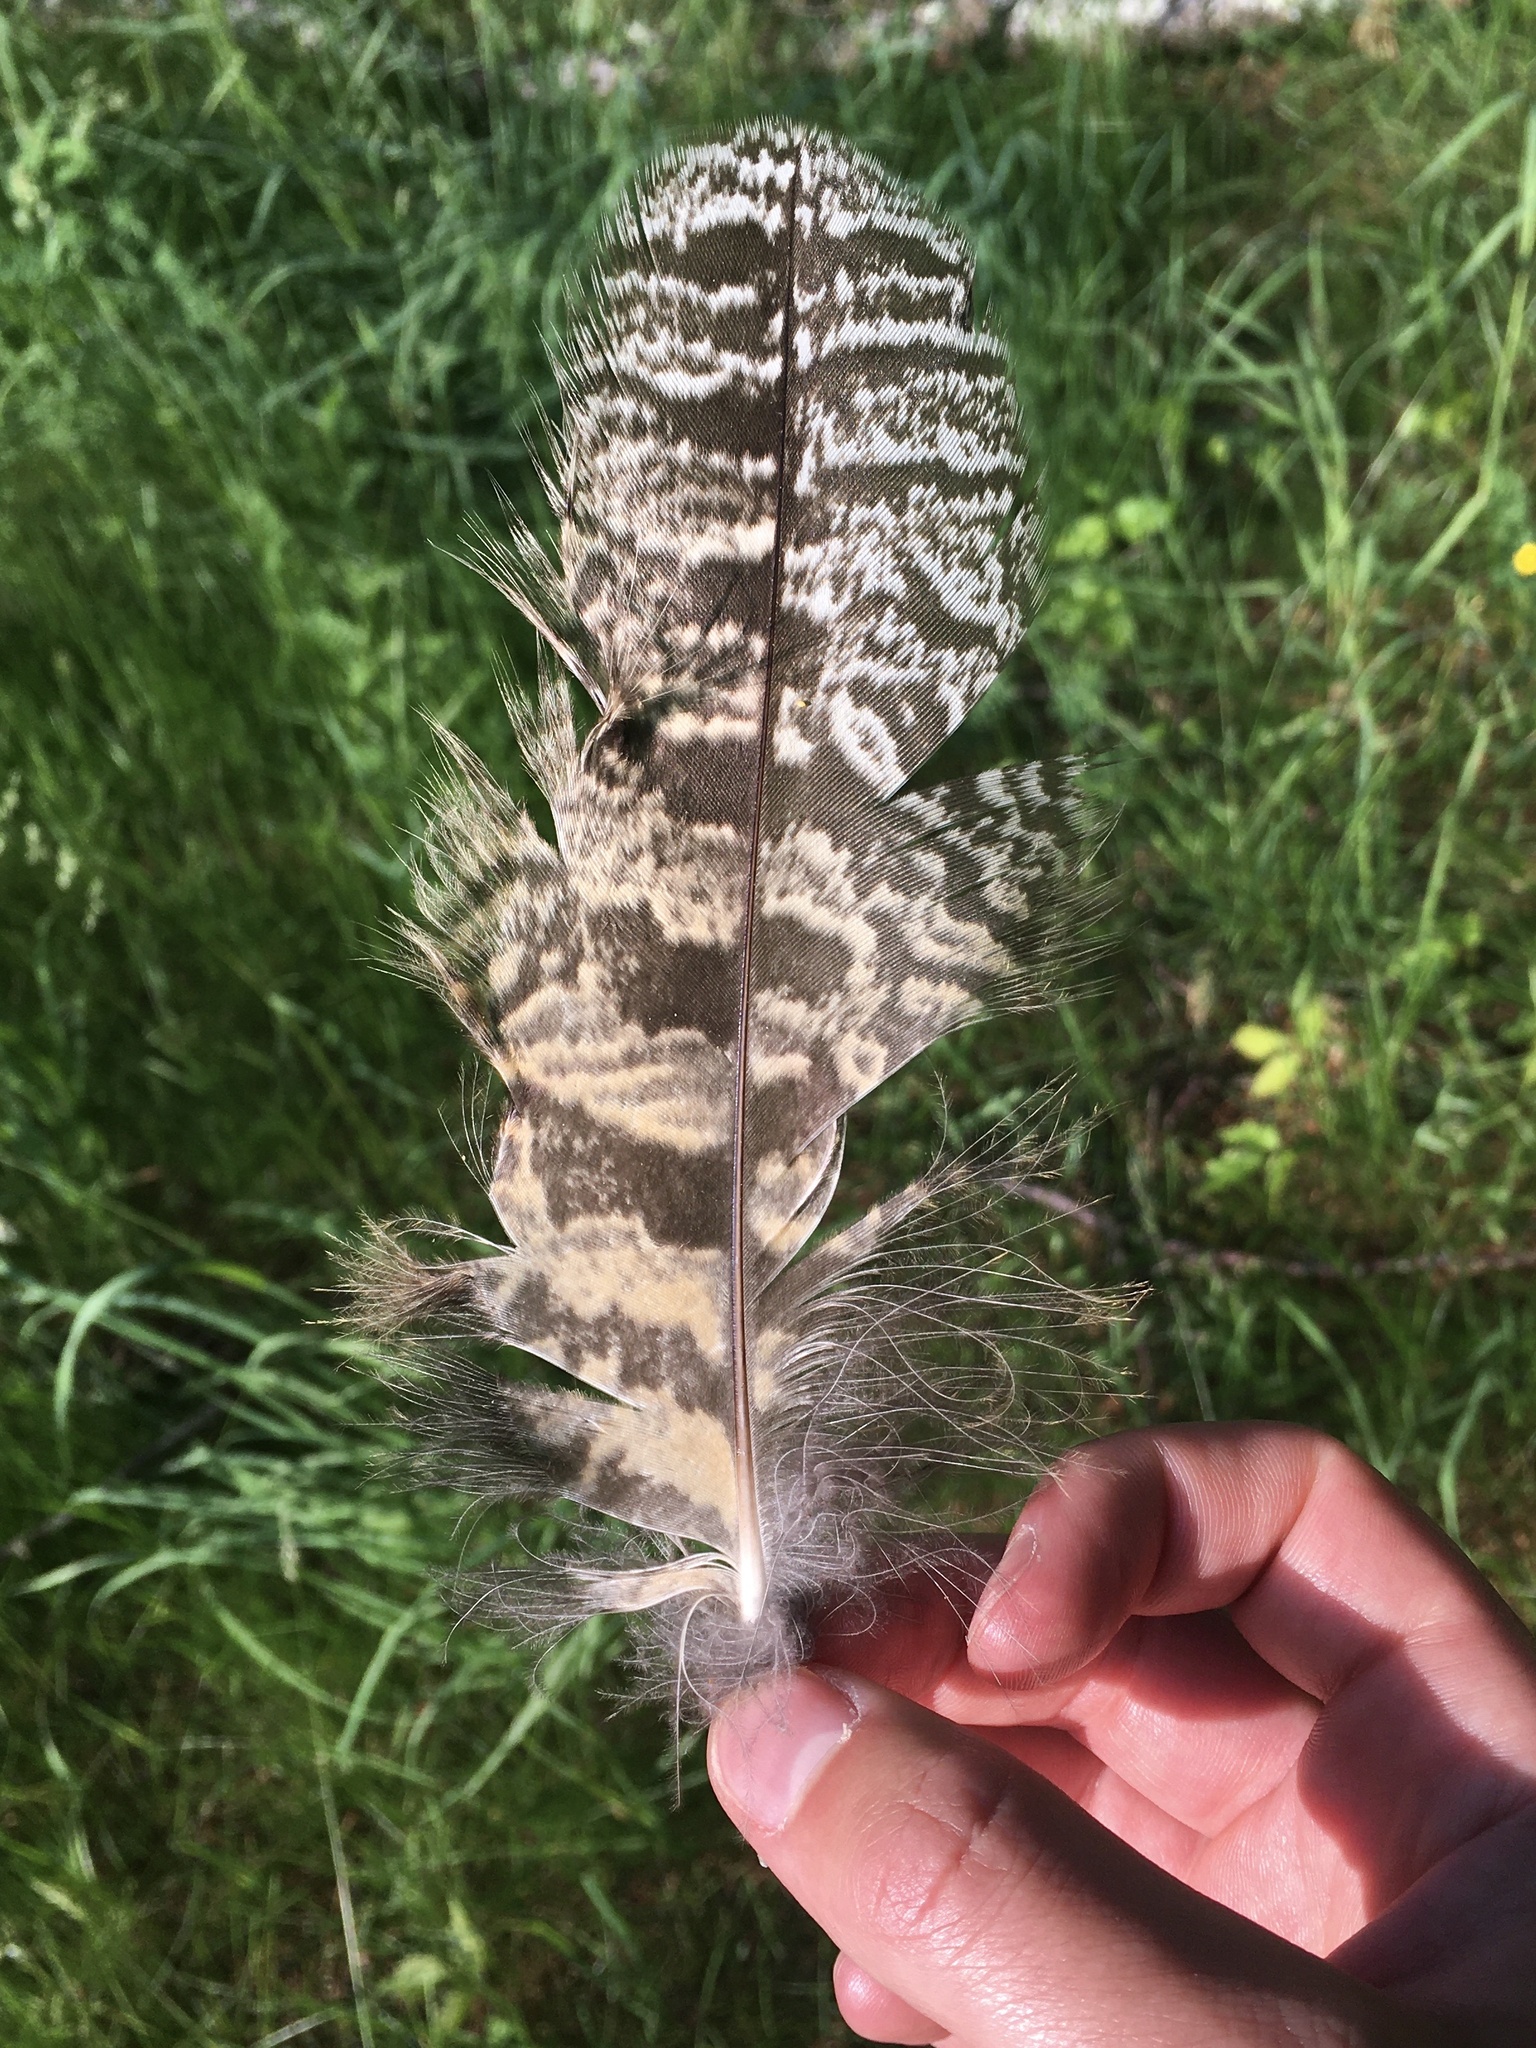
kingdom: Animalia
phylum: Chordata
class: Aves
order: Strigiformes
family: Strigidae
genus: Bubo
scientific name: Bubo virginianus
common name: Great horned owl
